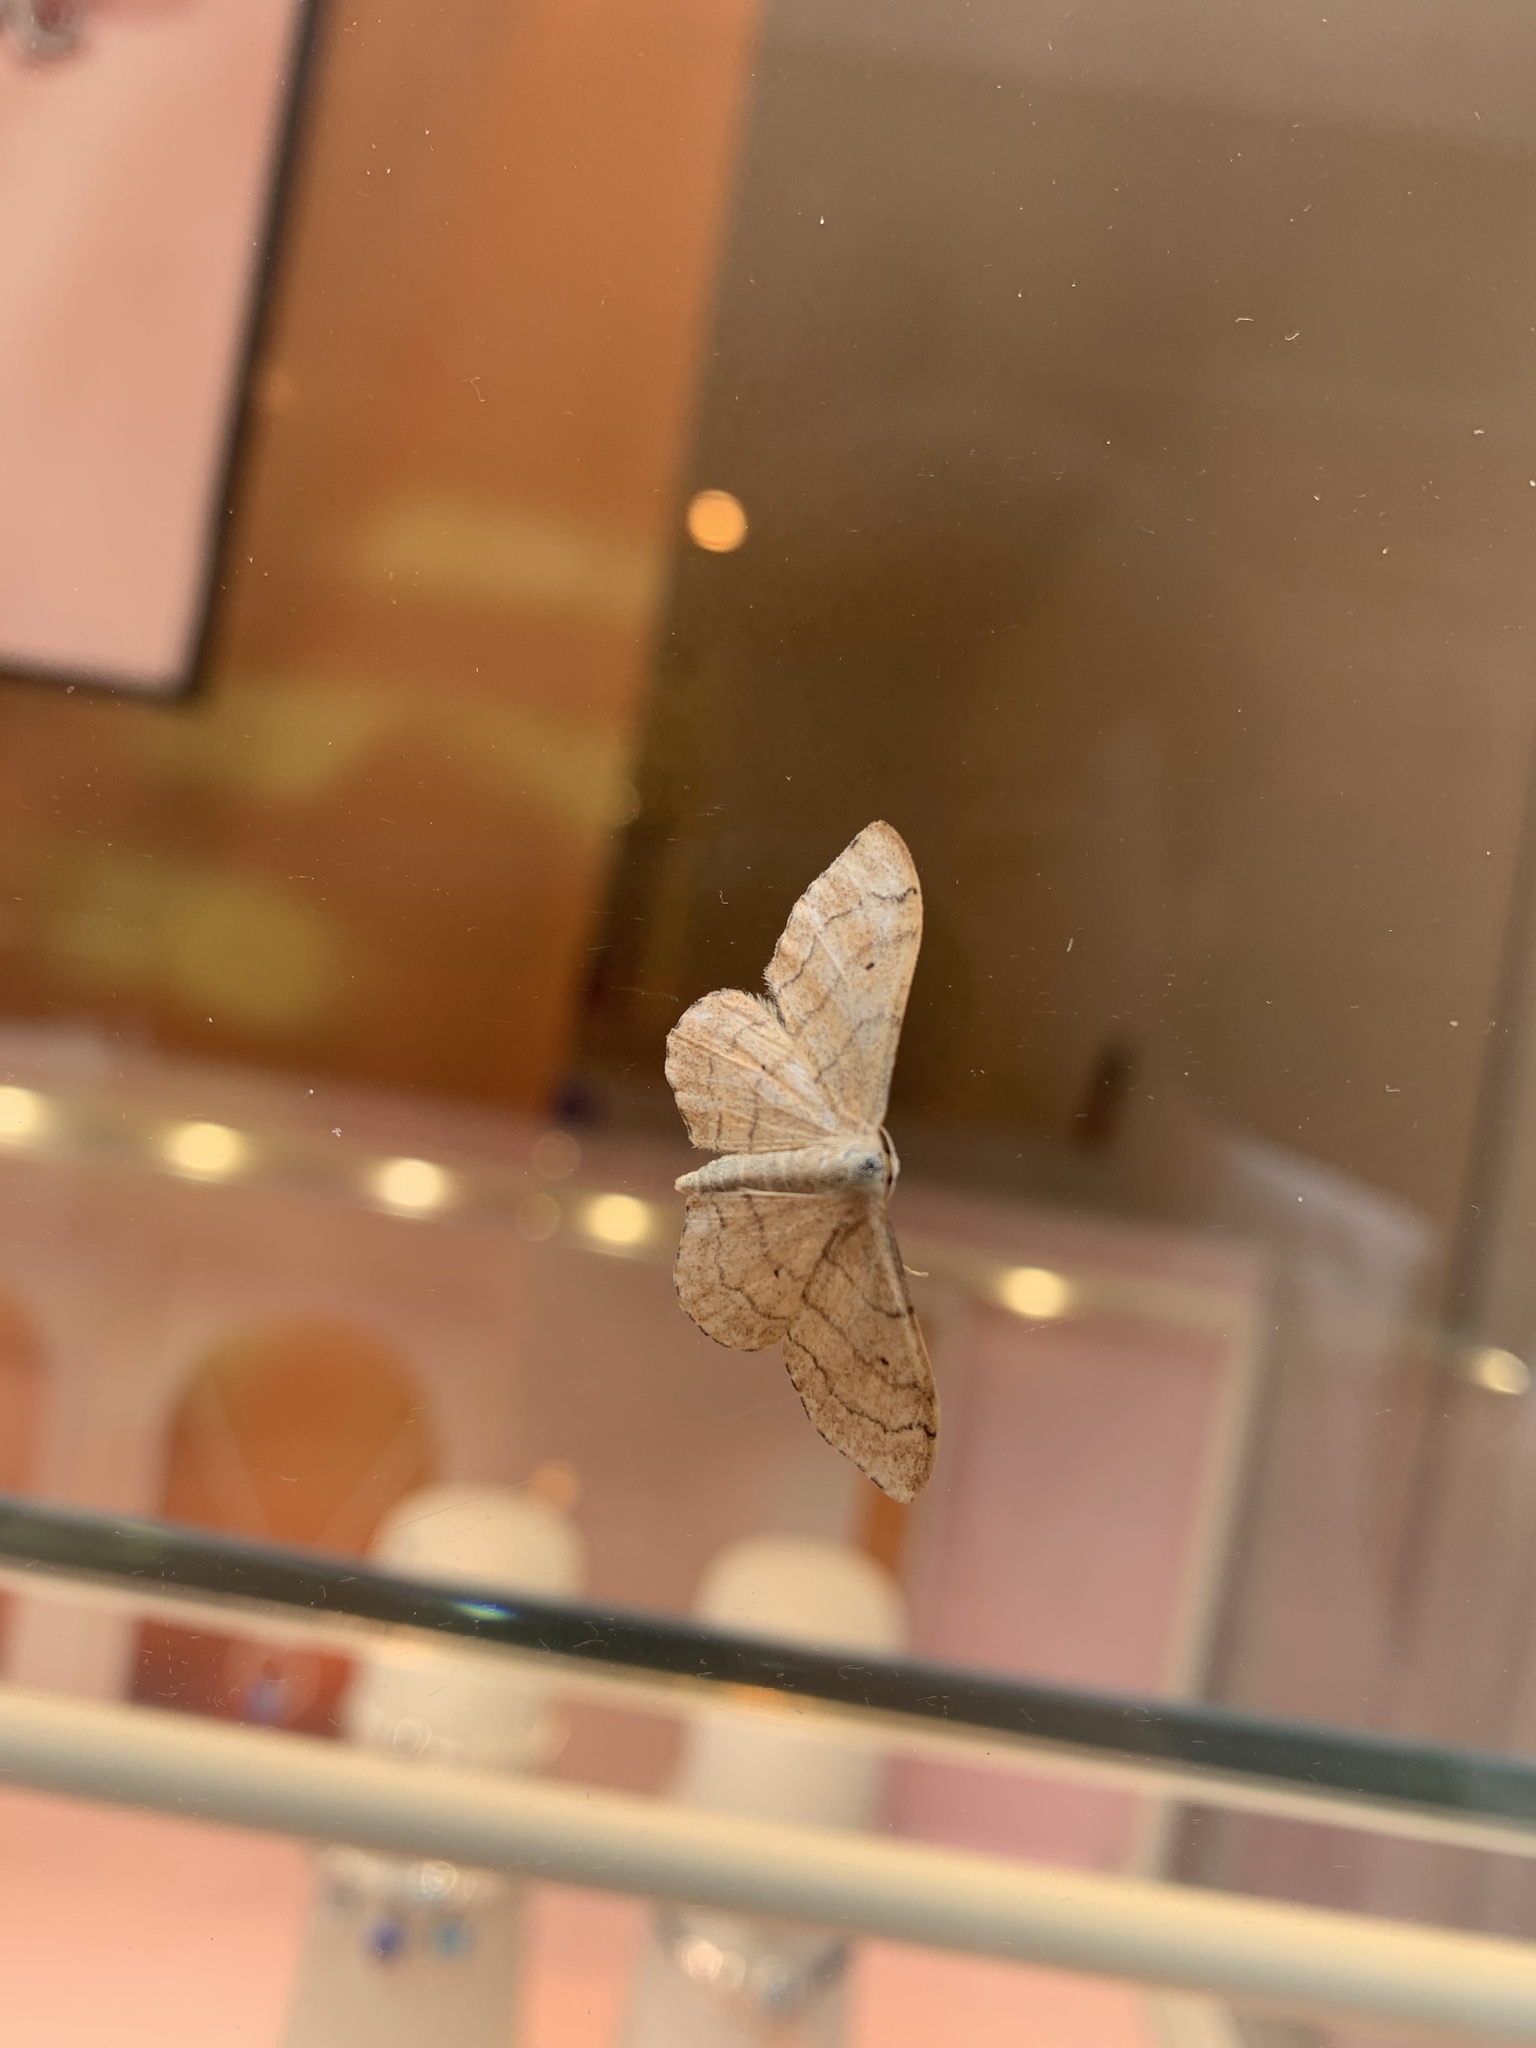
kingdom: Animalia
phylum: Arthropoda
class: Insecta
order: Lepidoptera
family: Geometridae
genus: Idaea
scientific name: Idaea aversata
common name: Riband wave
